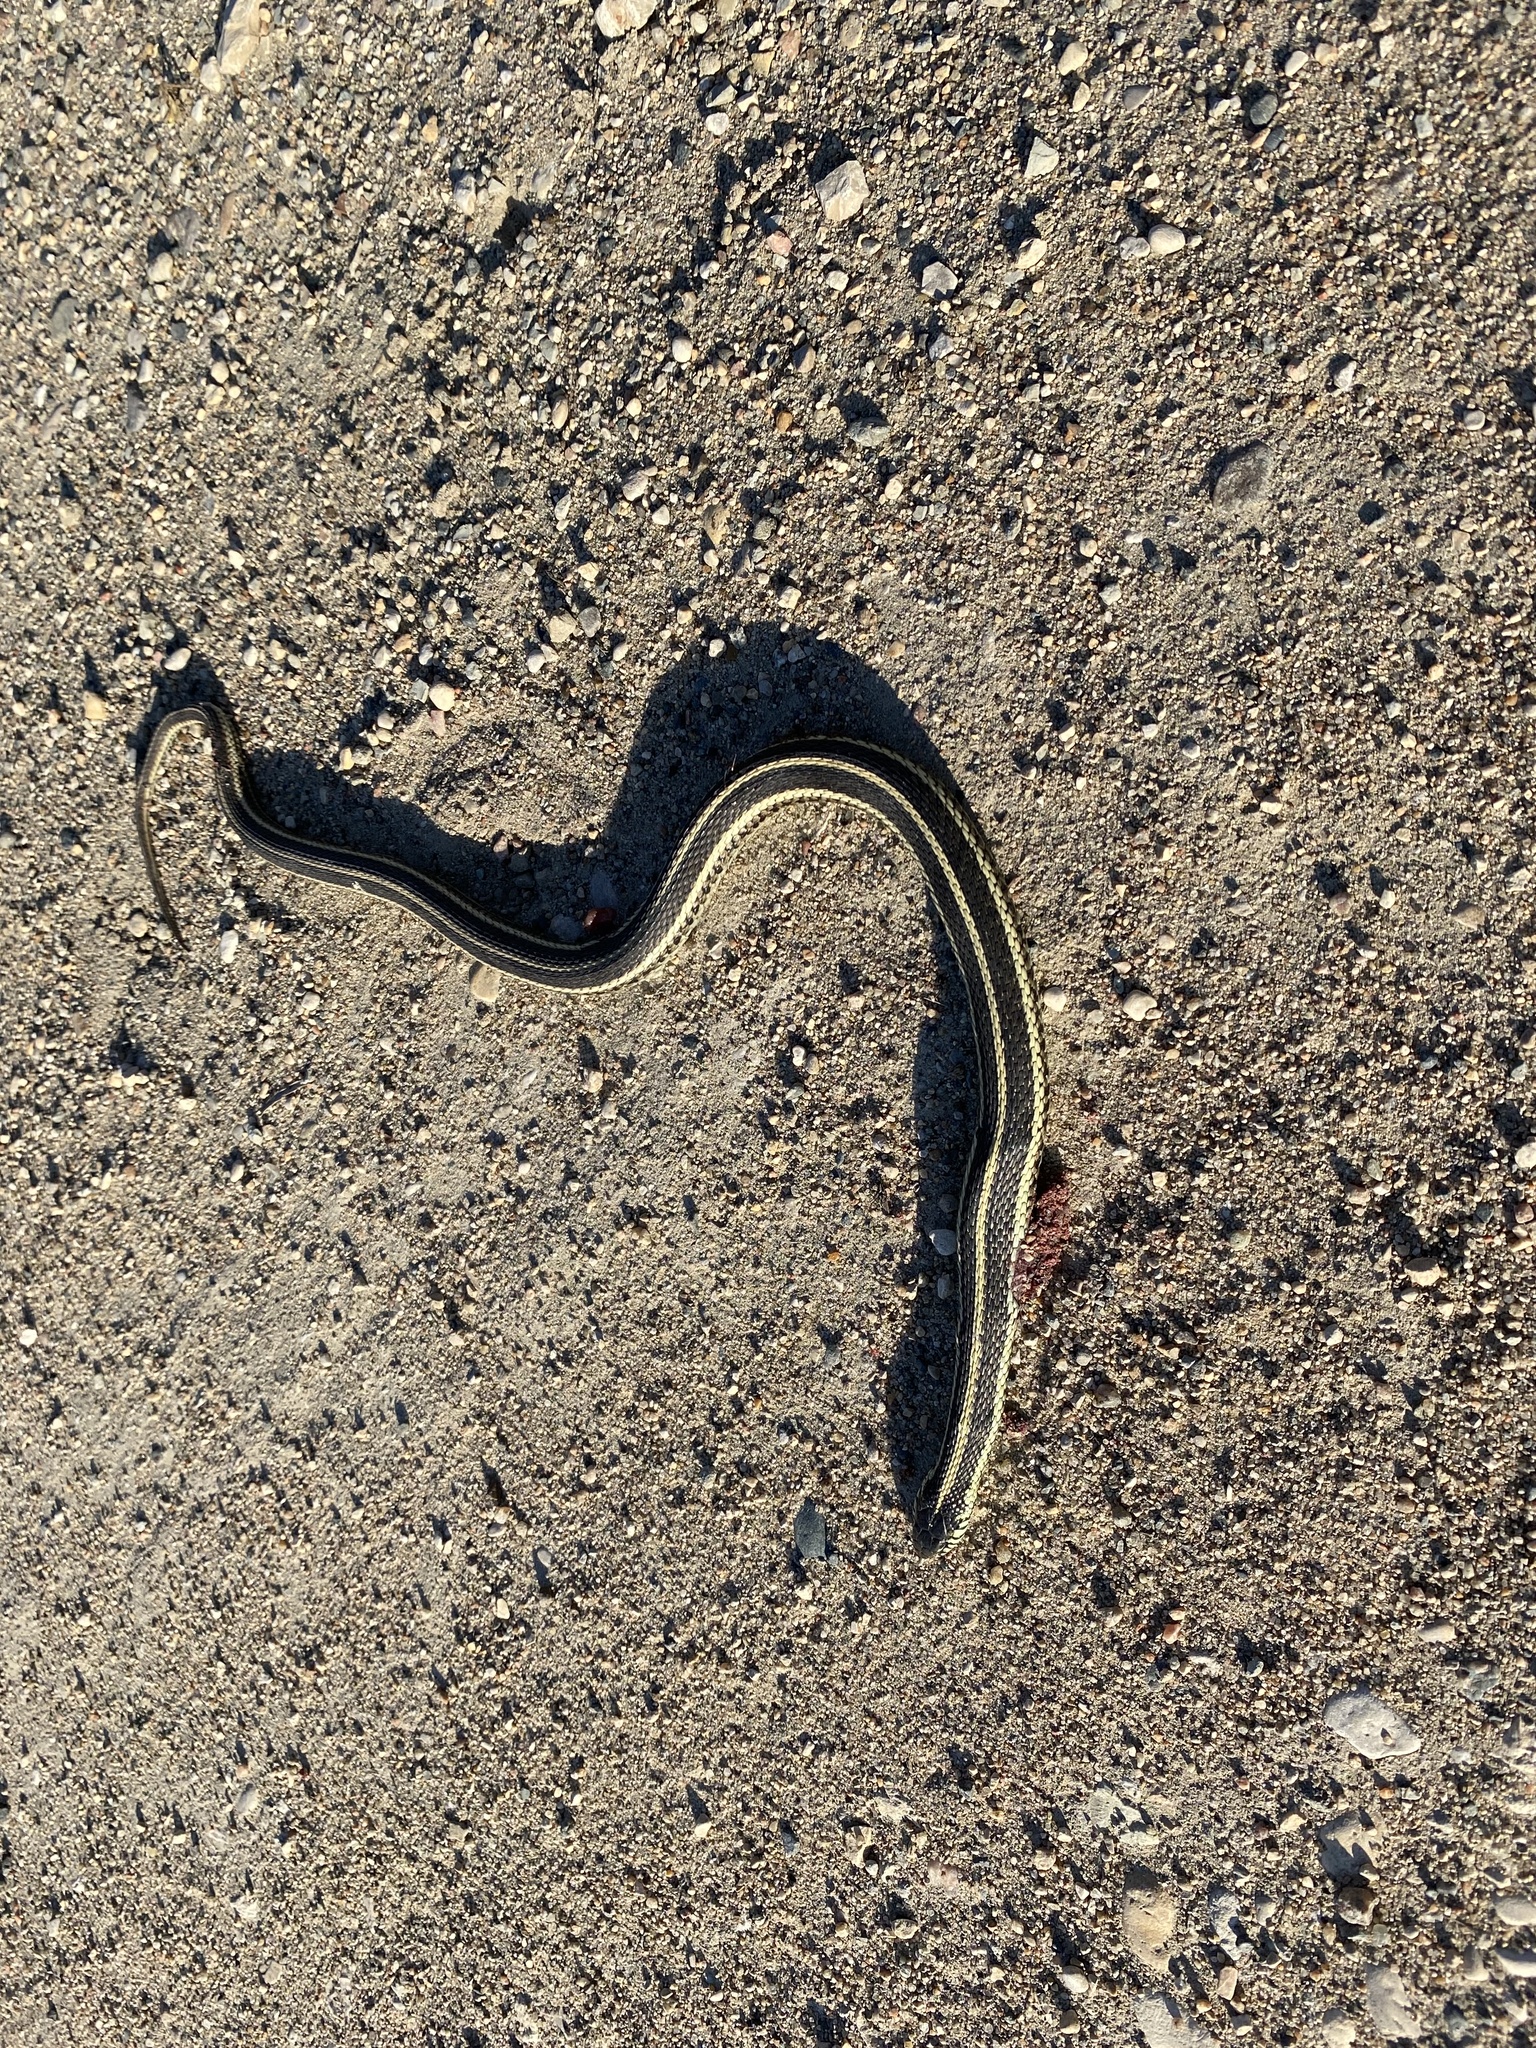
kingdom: Animalia
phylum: Chordata
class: Squamata
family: Colubridae
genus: Thamnophis
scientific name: Thamnophis radix
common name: Plains garter snake
